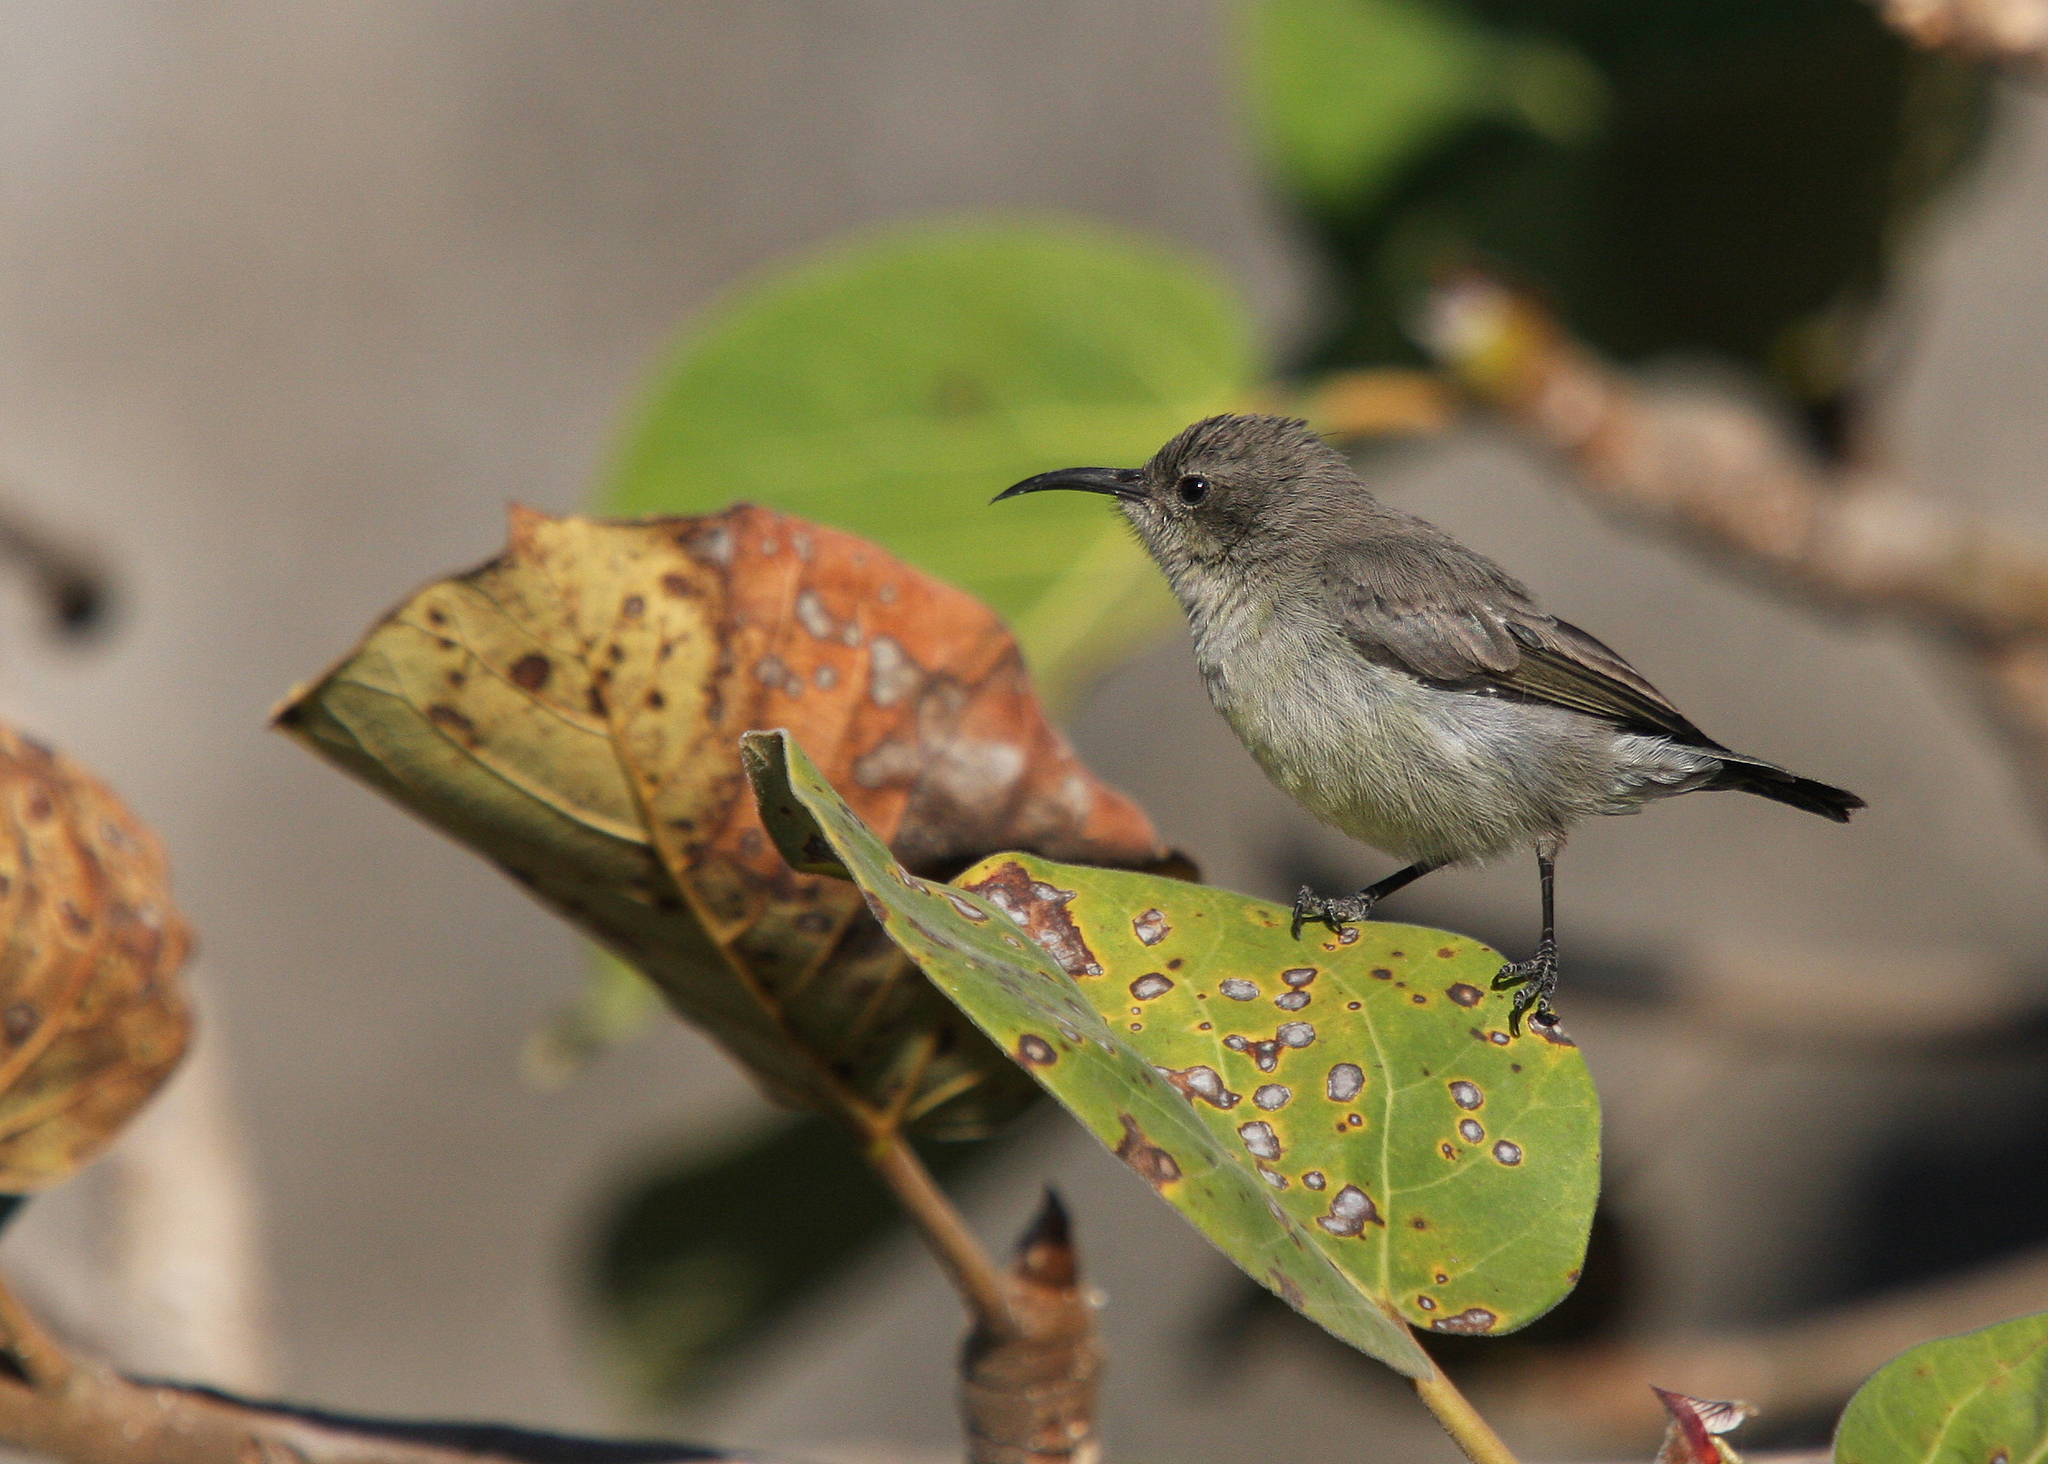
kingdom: Animalia
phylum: Chordata
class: Aves
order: Passeriformes
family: Nectariniidae
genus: Cinnyris
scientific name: Cinnyris osea
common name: Palestine sunbird
